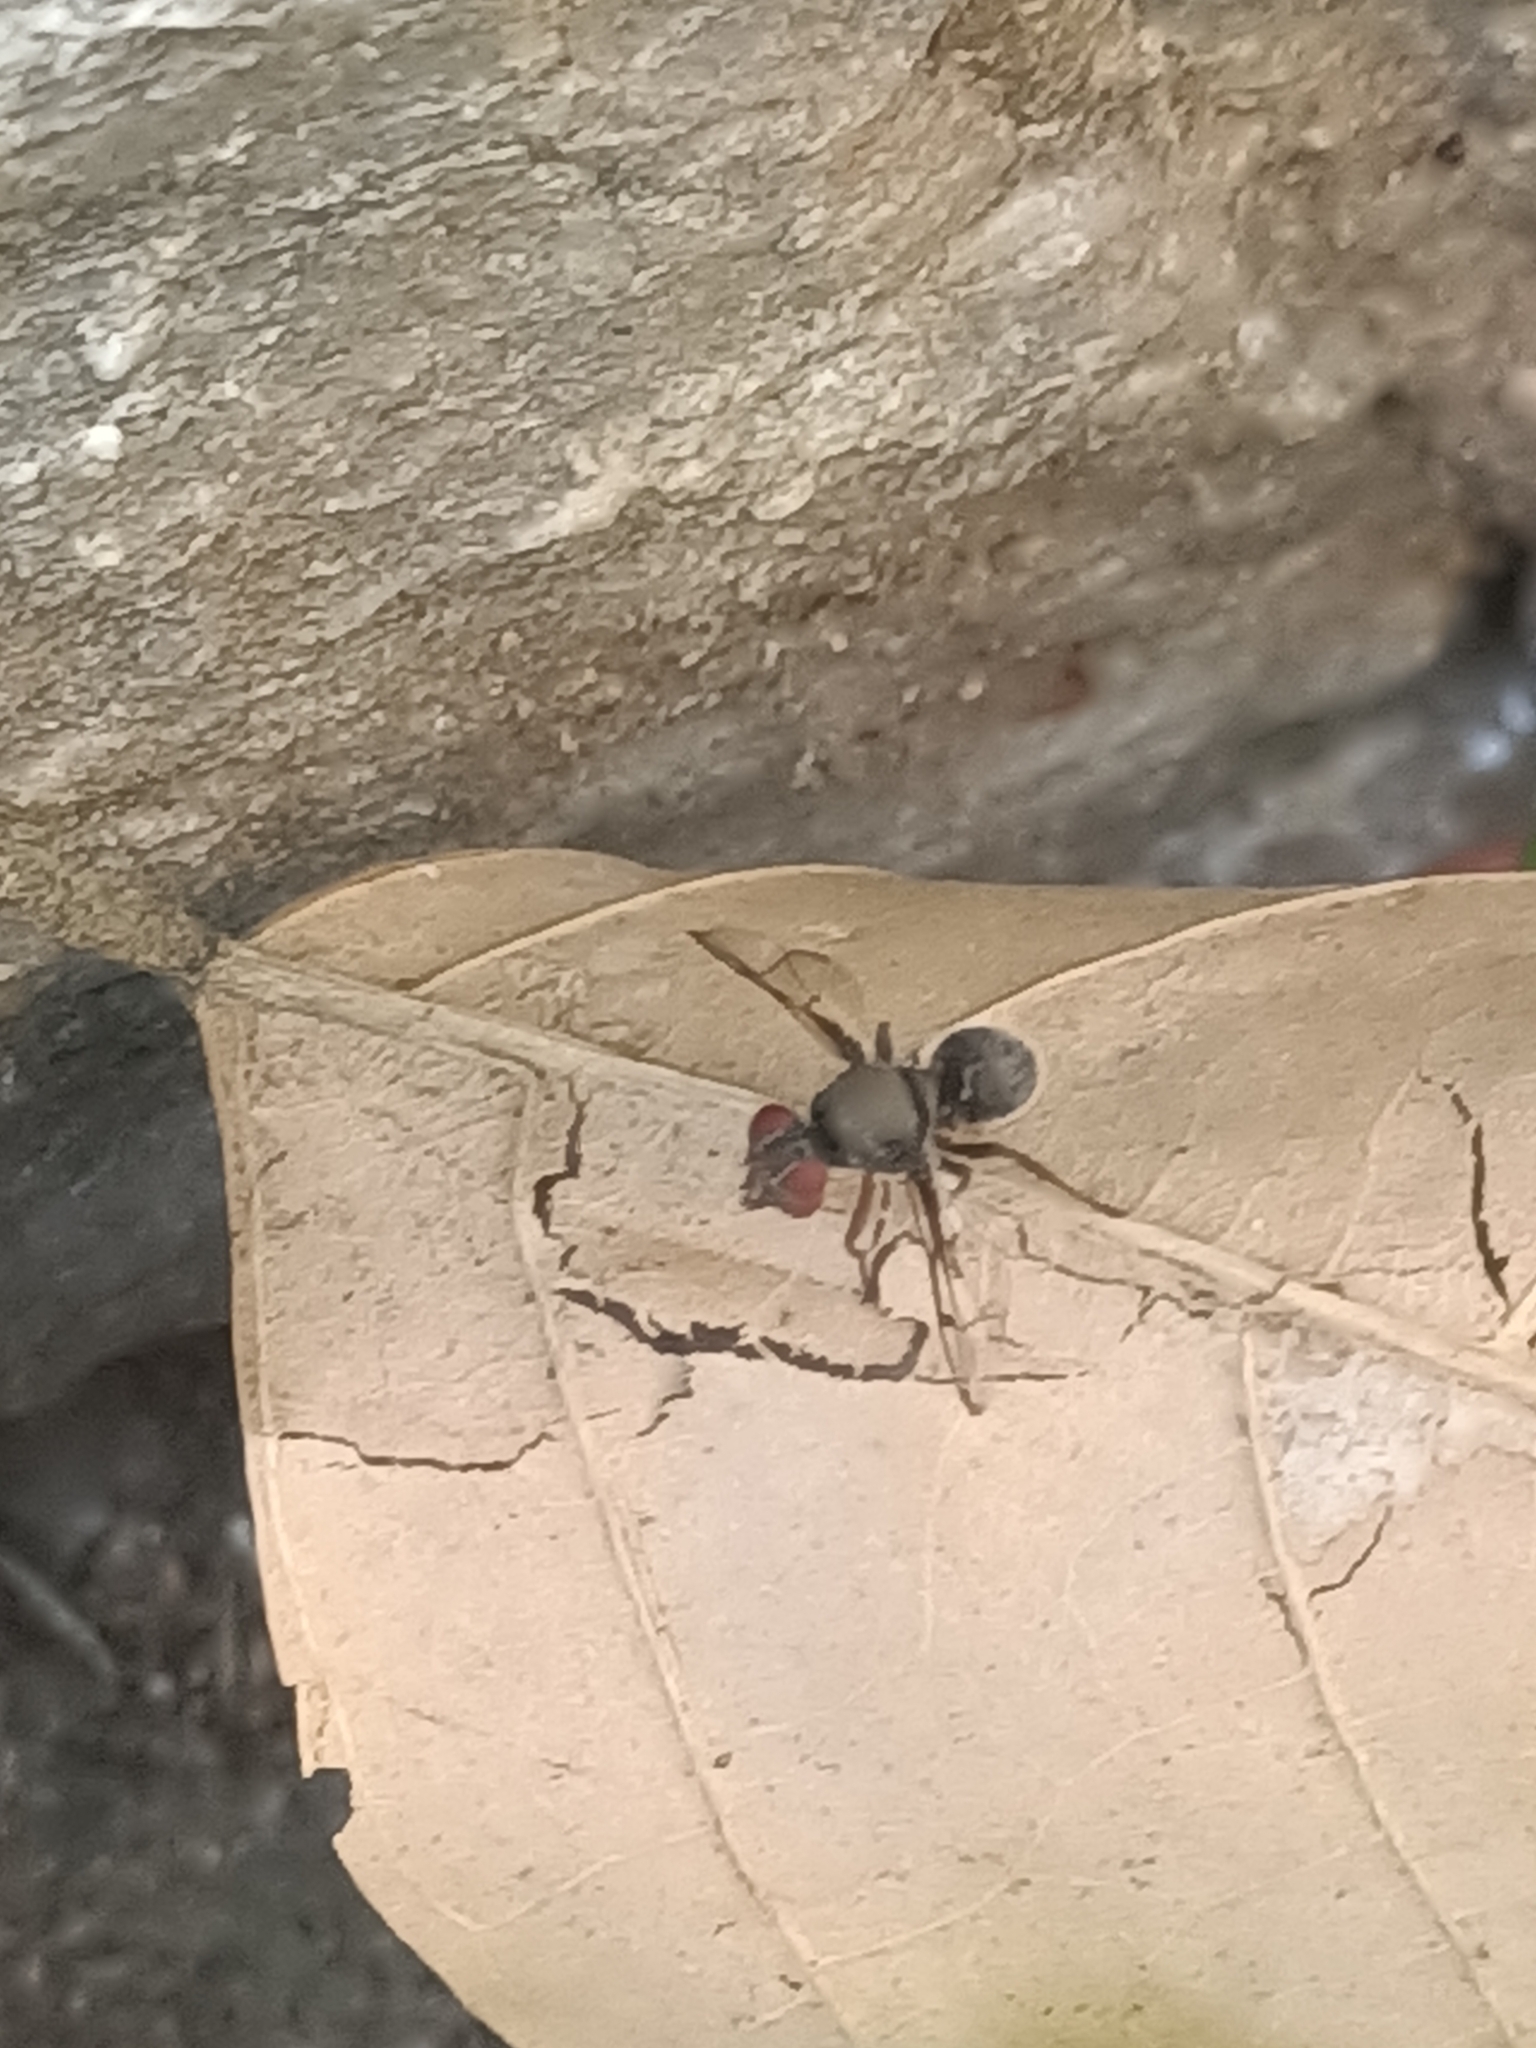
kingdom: Animalia
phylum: Arthropoda
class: Insecta
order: Diptera
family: Platystomatidae
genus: Pogonortalis
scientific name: Pogonortalis doclea
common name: Boatman fly
